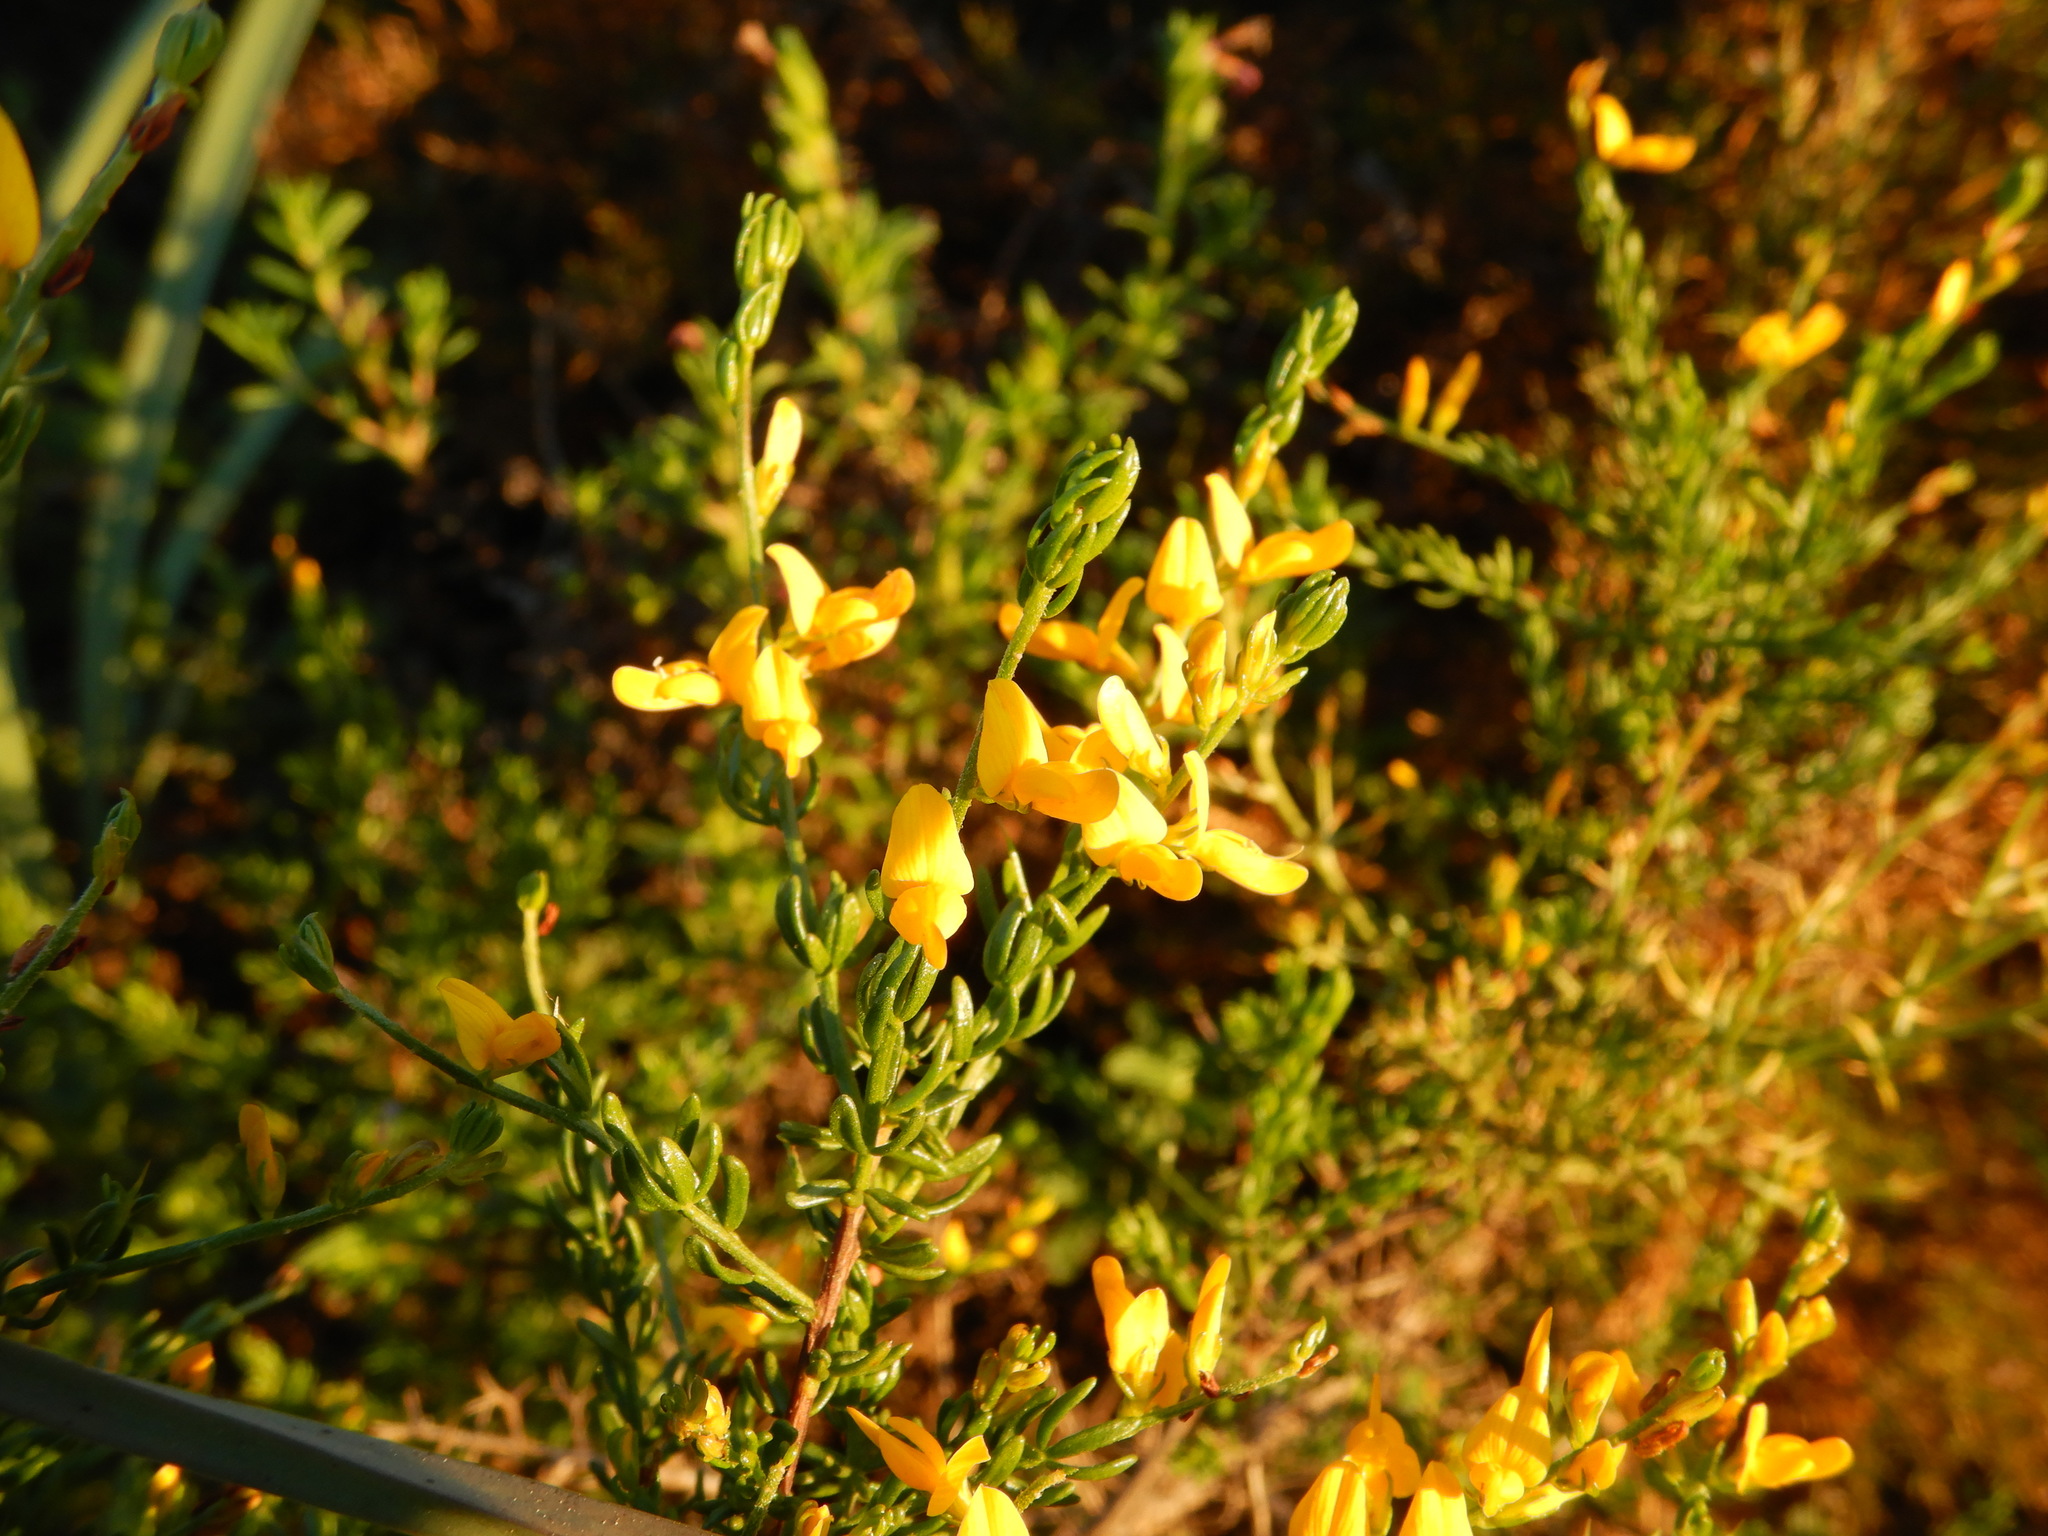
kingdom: Plantae
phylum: Tracheophyta
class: Magnoliopsida
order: Fabales
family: Fabaceae
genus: Genista
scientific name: Genista triacanthos
